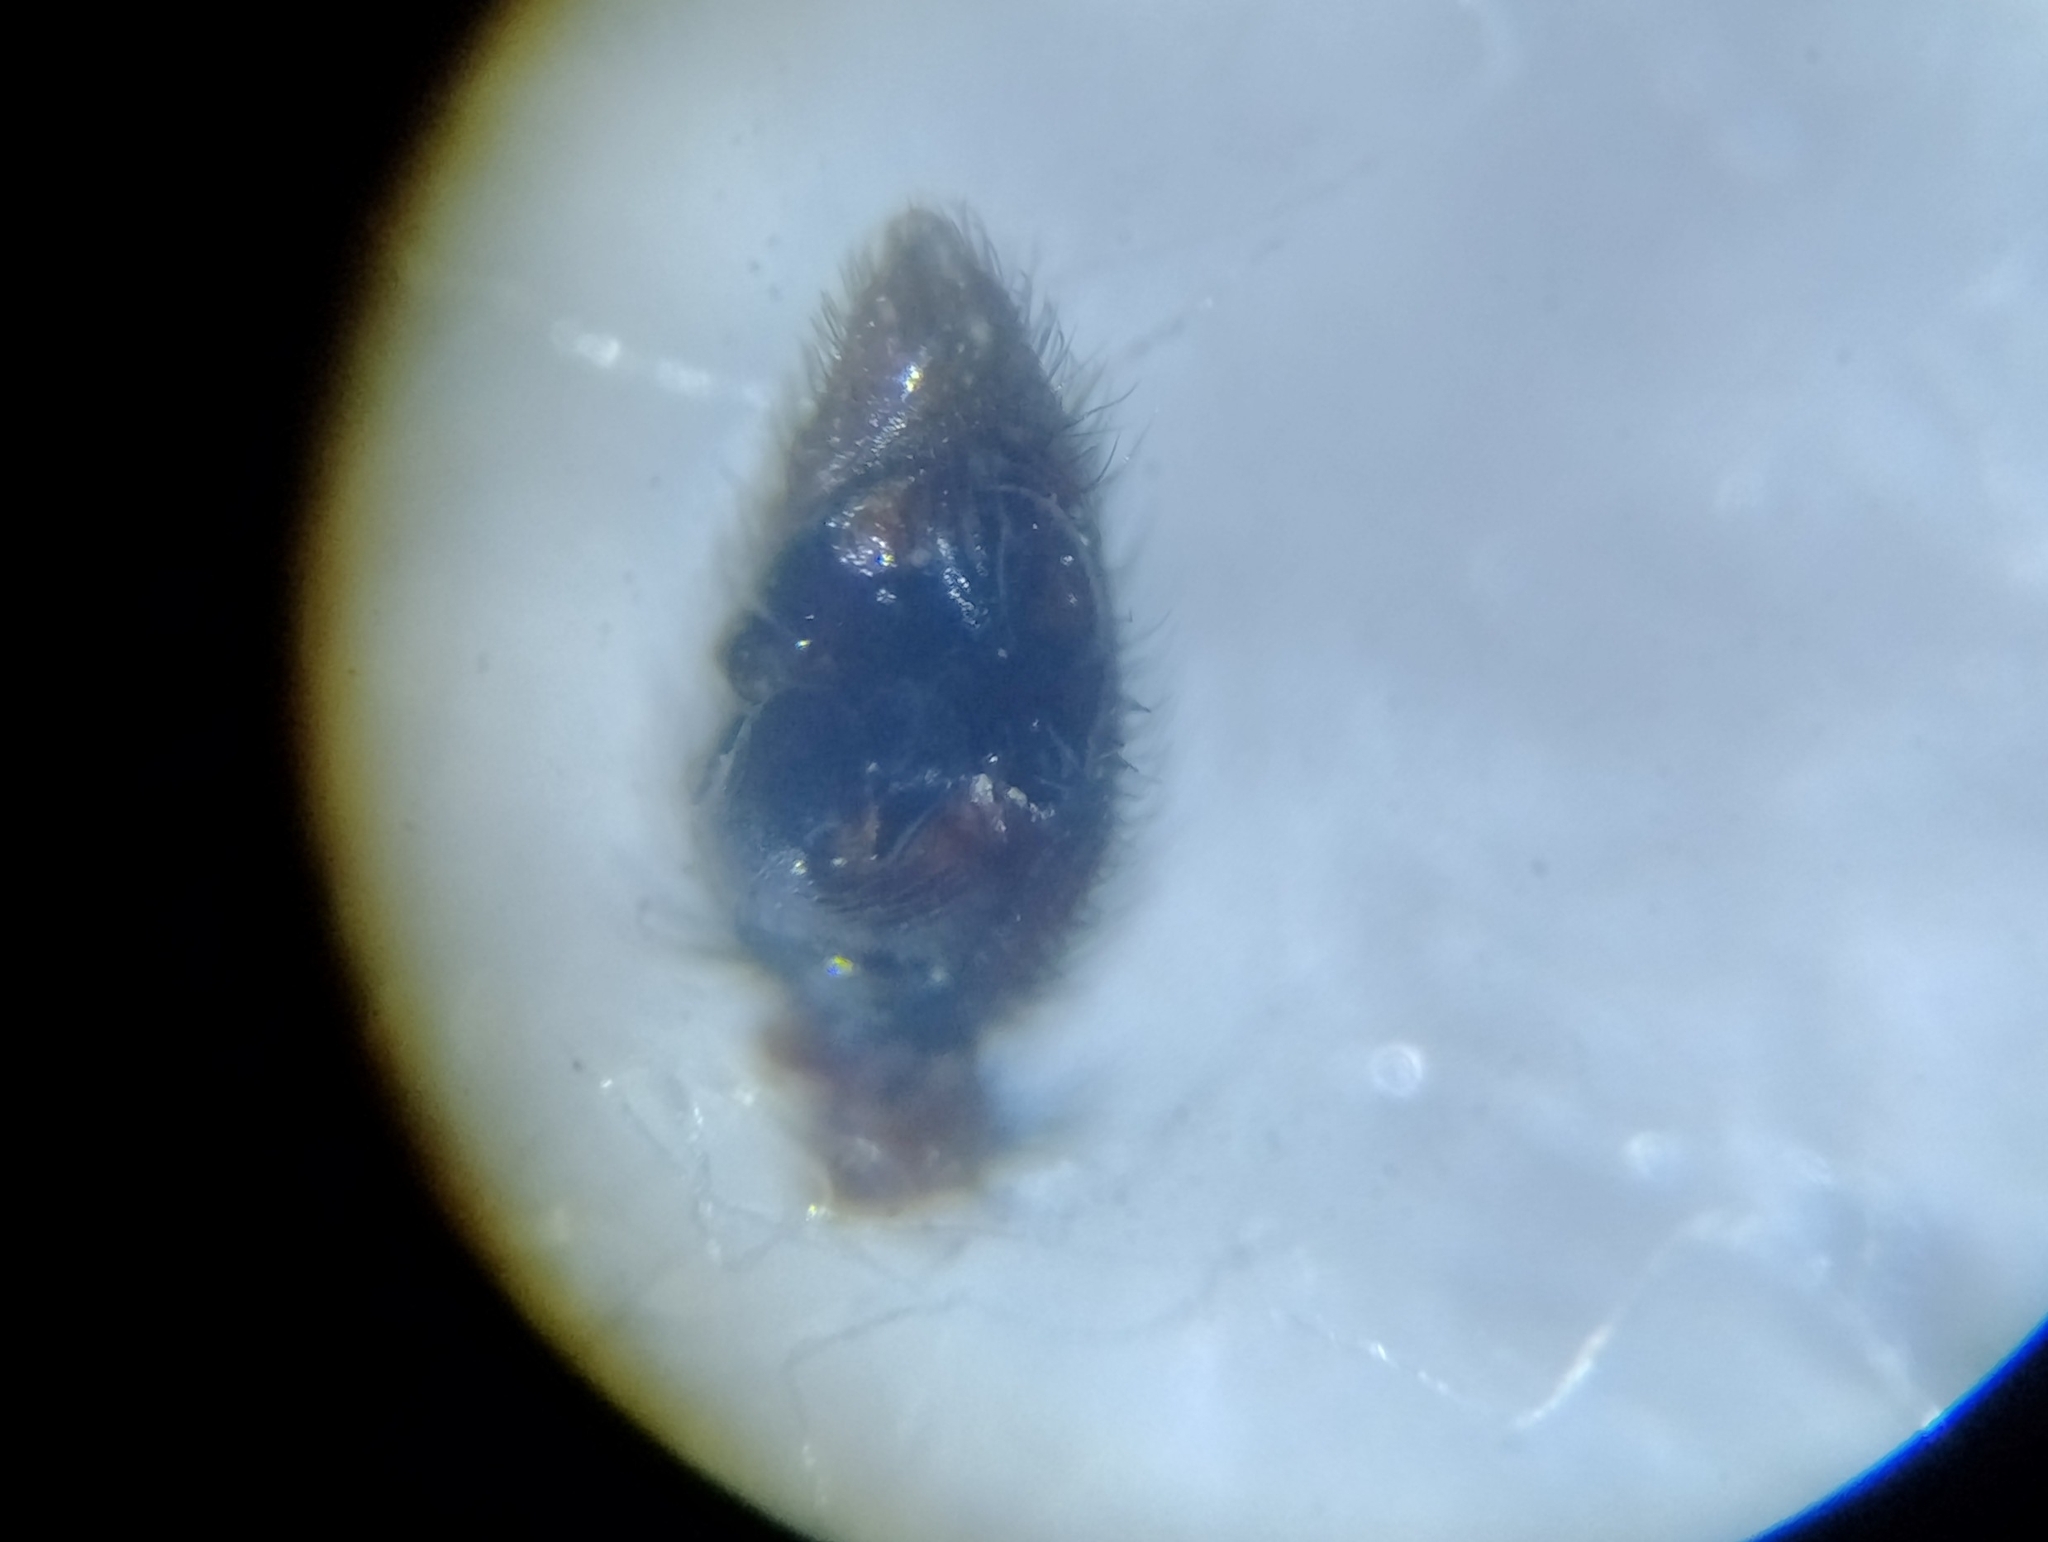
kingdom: Animalia
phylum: Arthropoda
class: Arachnida
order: Araneae
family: Lycosidae
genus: Pardosa
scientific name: Pardosa hyperborea
